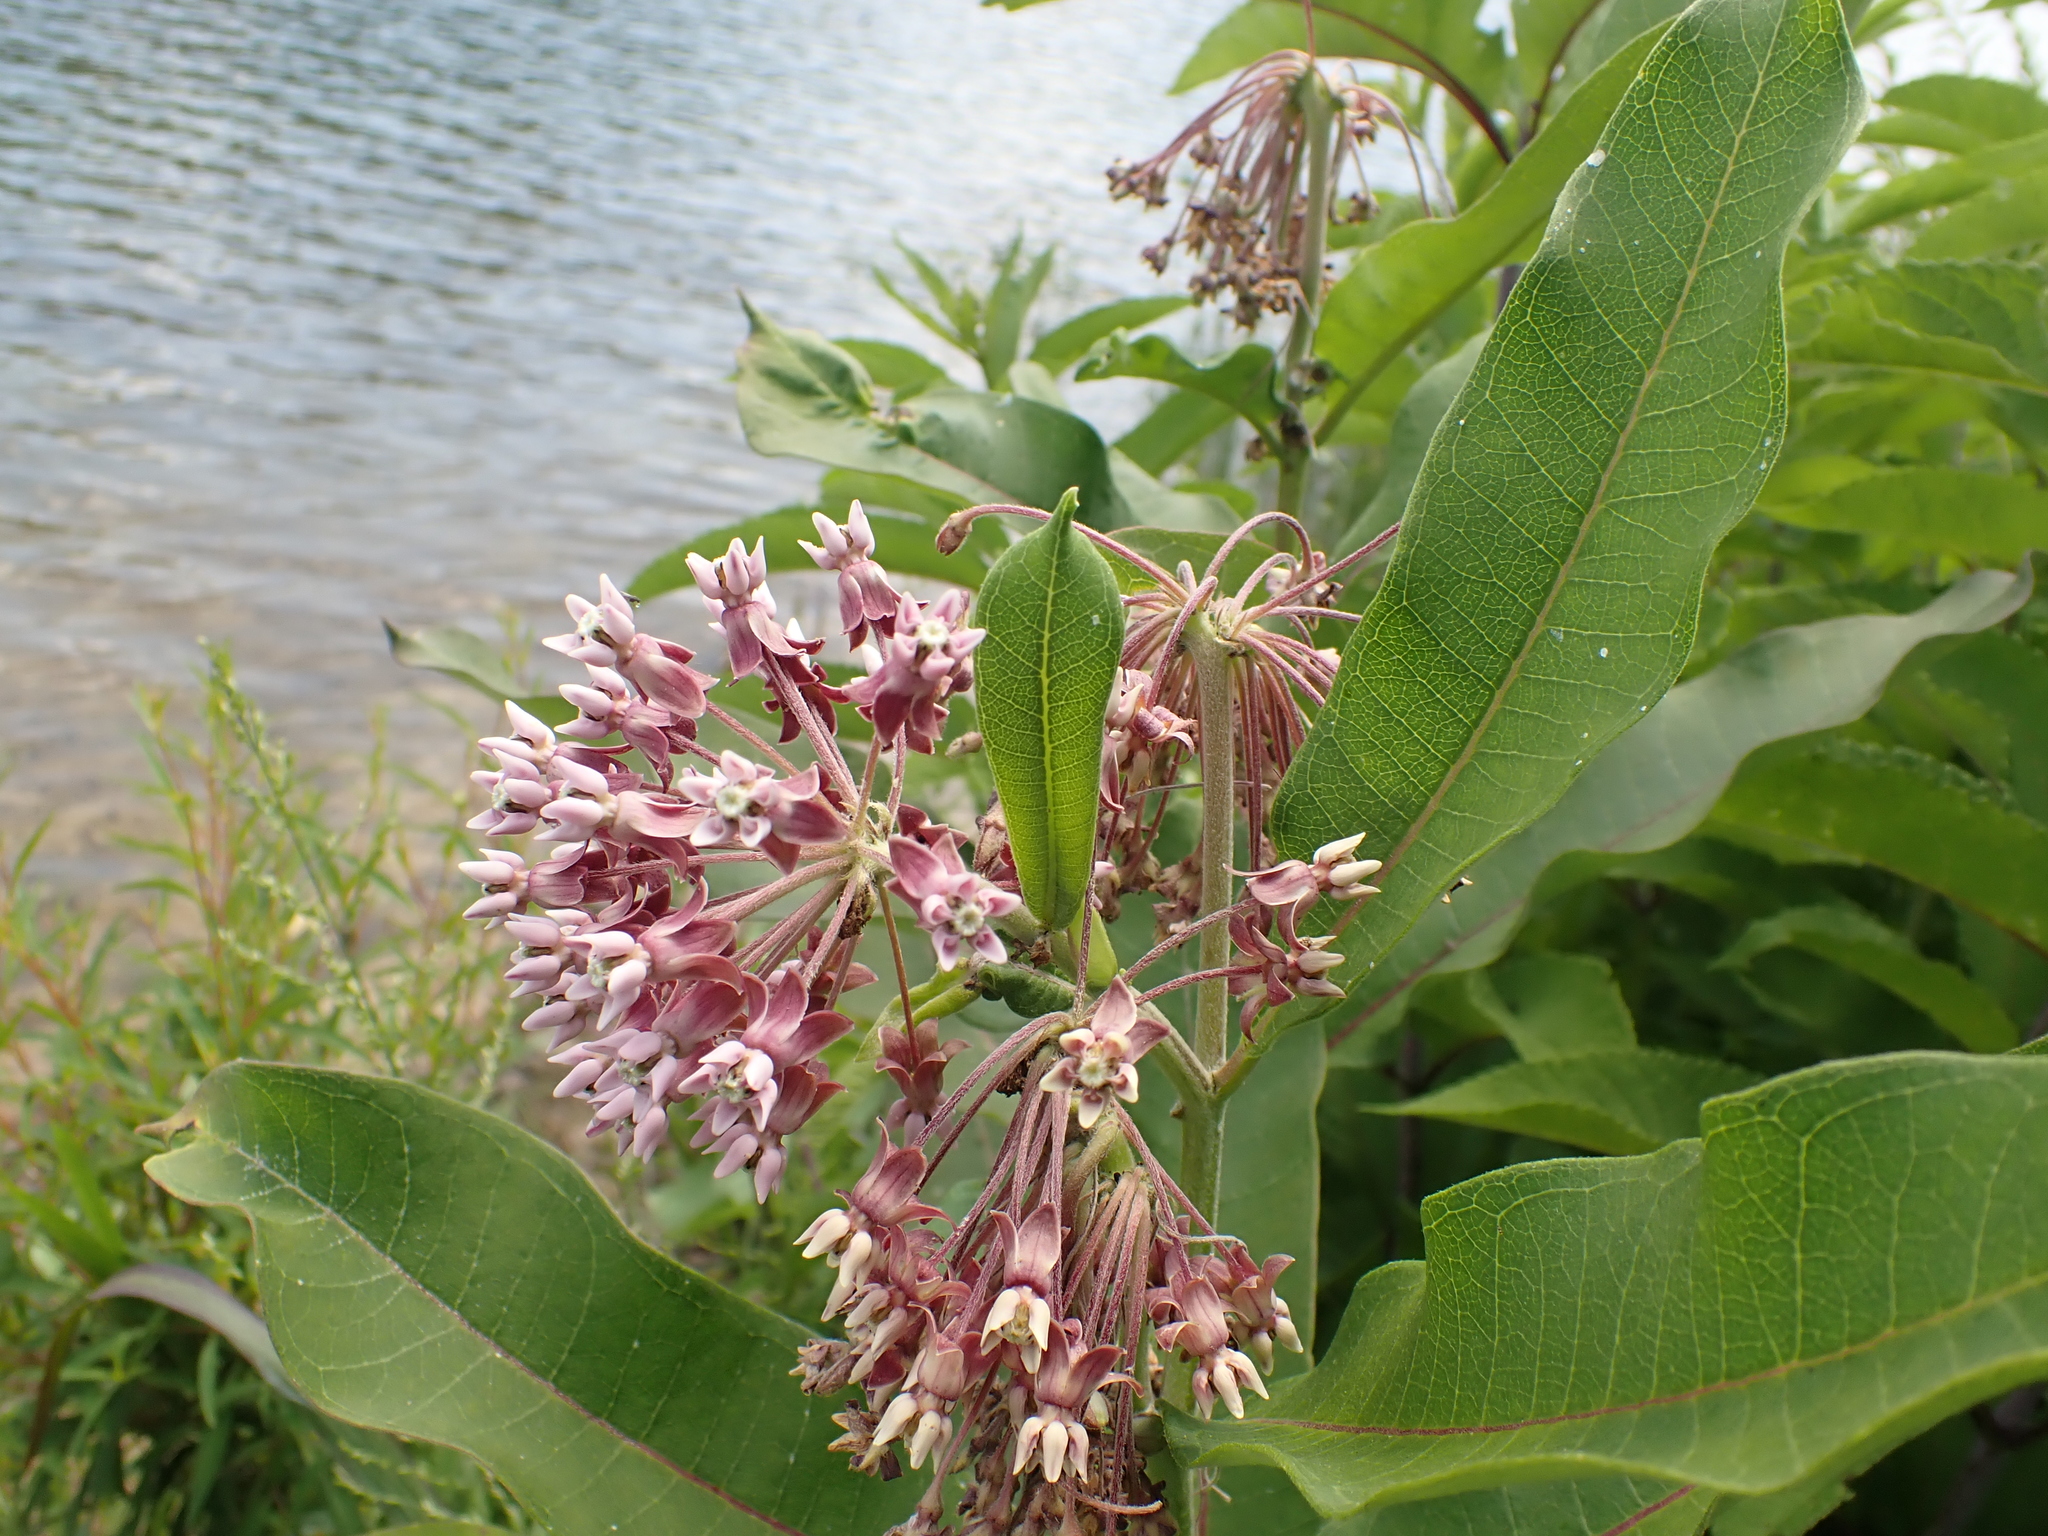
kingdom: Plantae
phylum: Tracheophyta
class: Magnoliopsida
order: Gentianales
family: Apocynaceae
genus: Asclepias
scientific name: Asclepias syriaca
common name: Common milkweed
